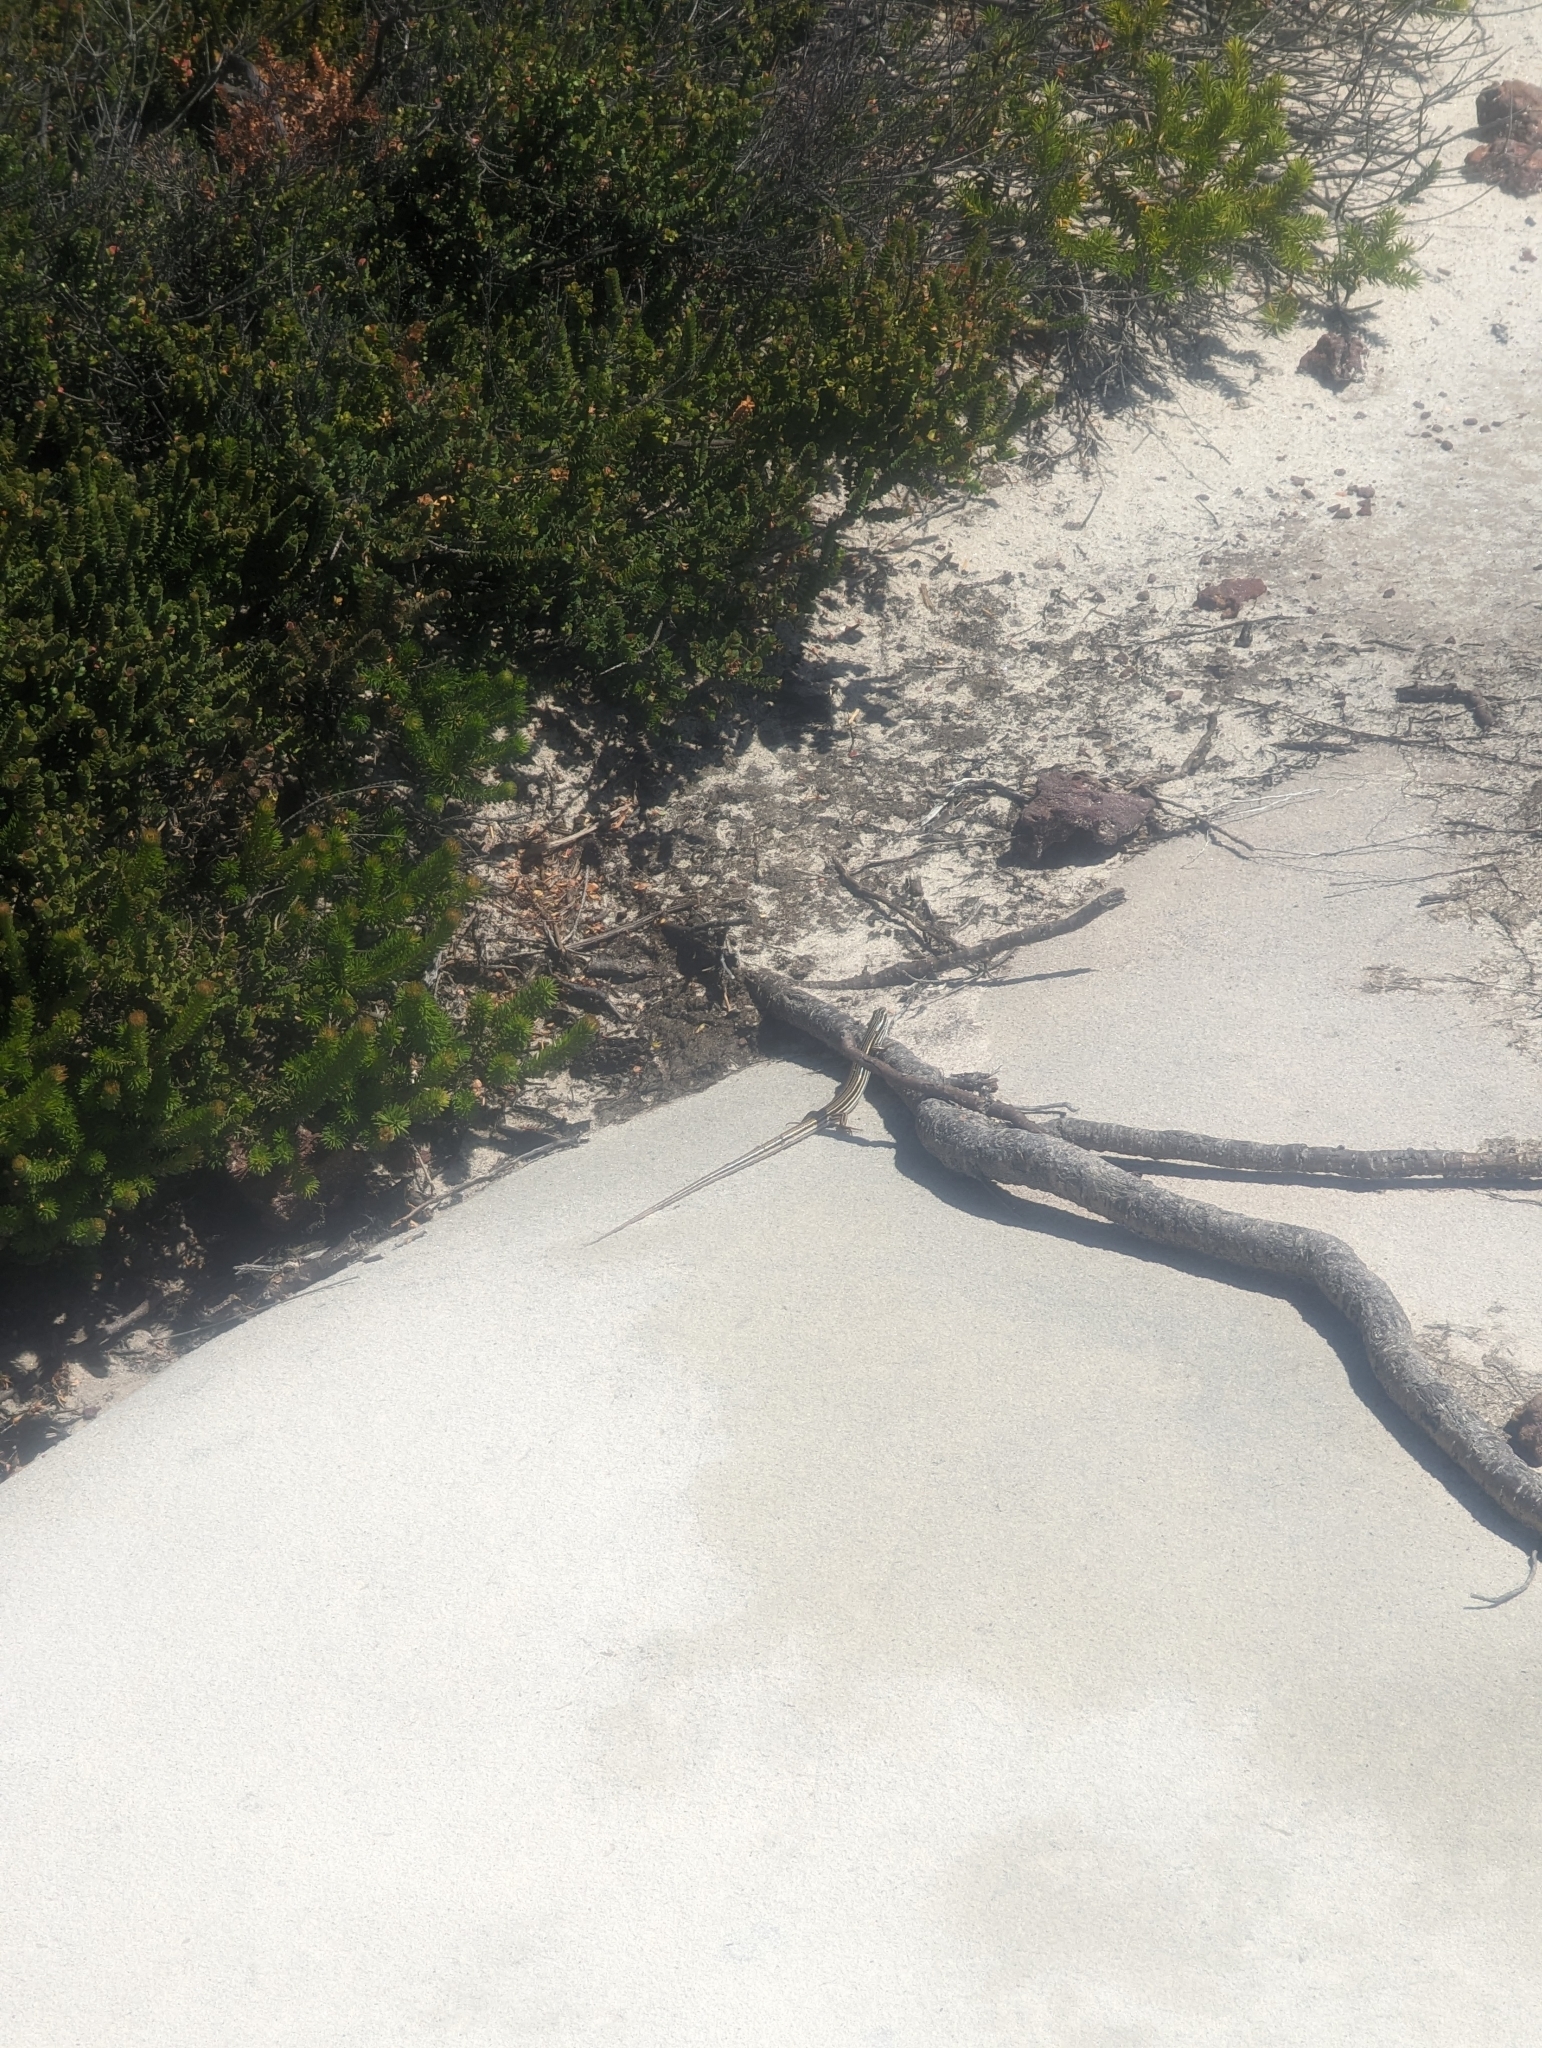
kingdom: Animalia
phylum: Chordata
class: Squamata
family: Scincidae
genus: Ctenotus
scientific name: Ctenotus taeniolatus
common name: Copper-tailed skink
